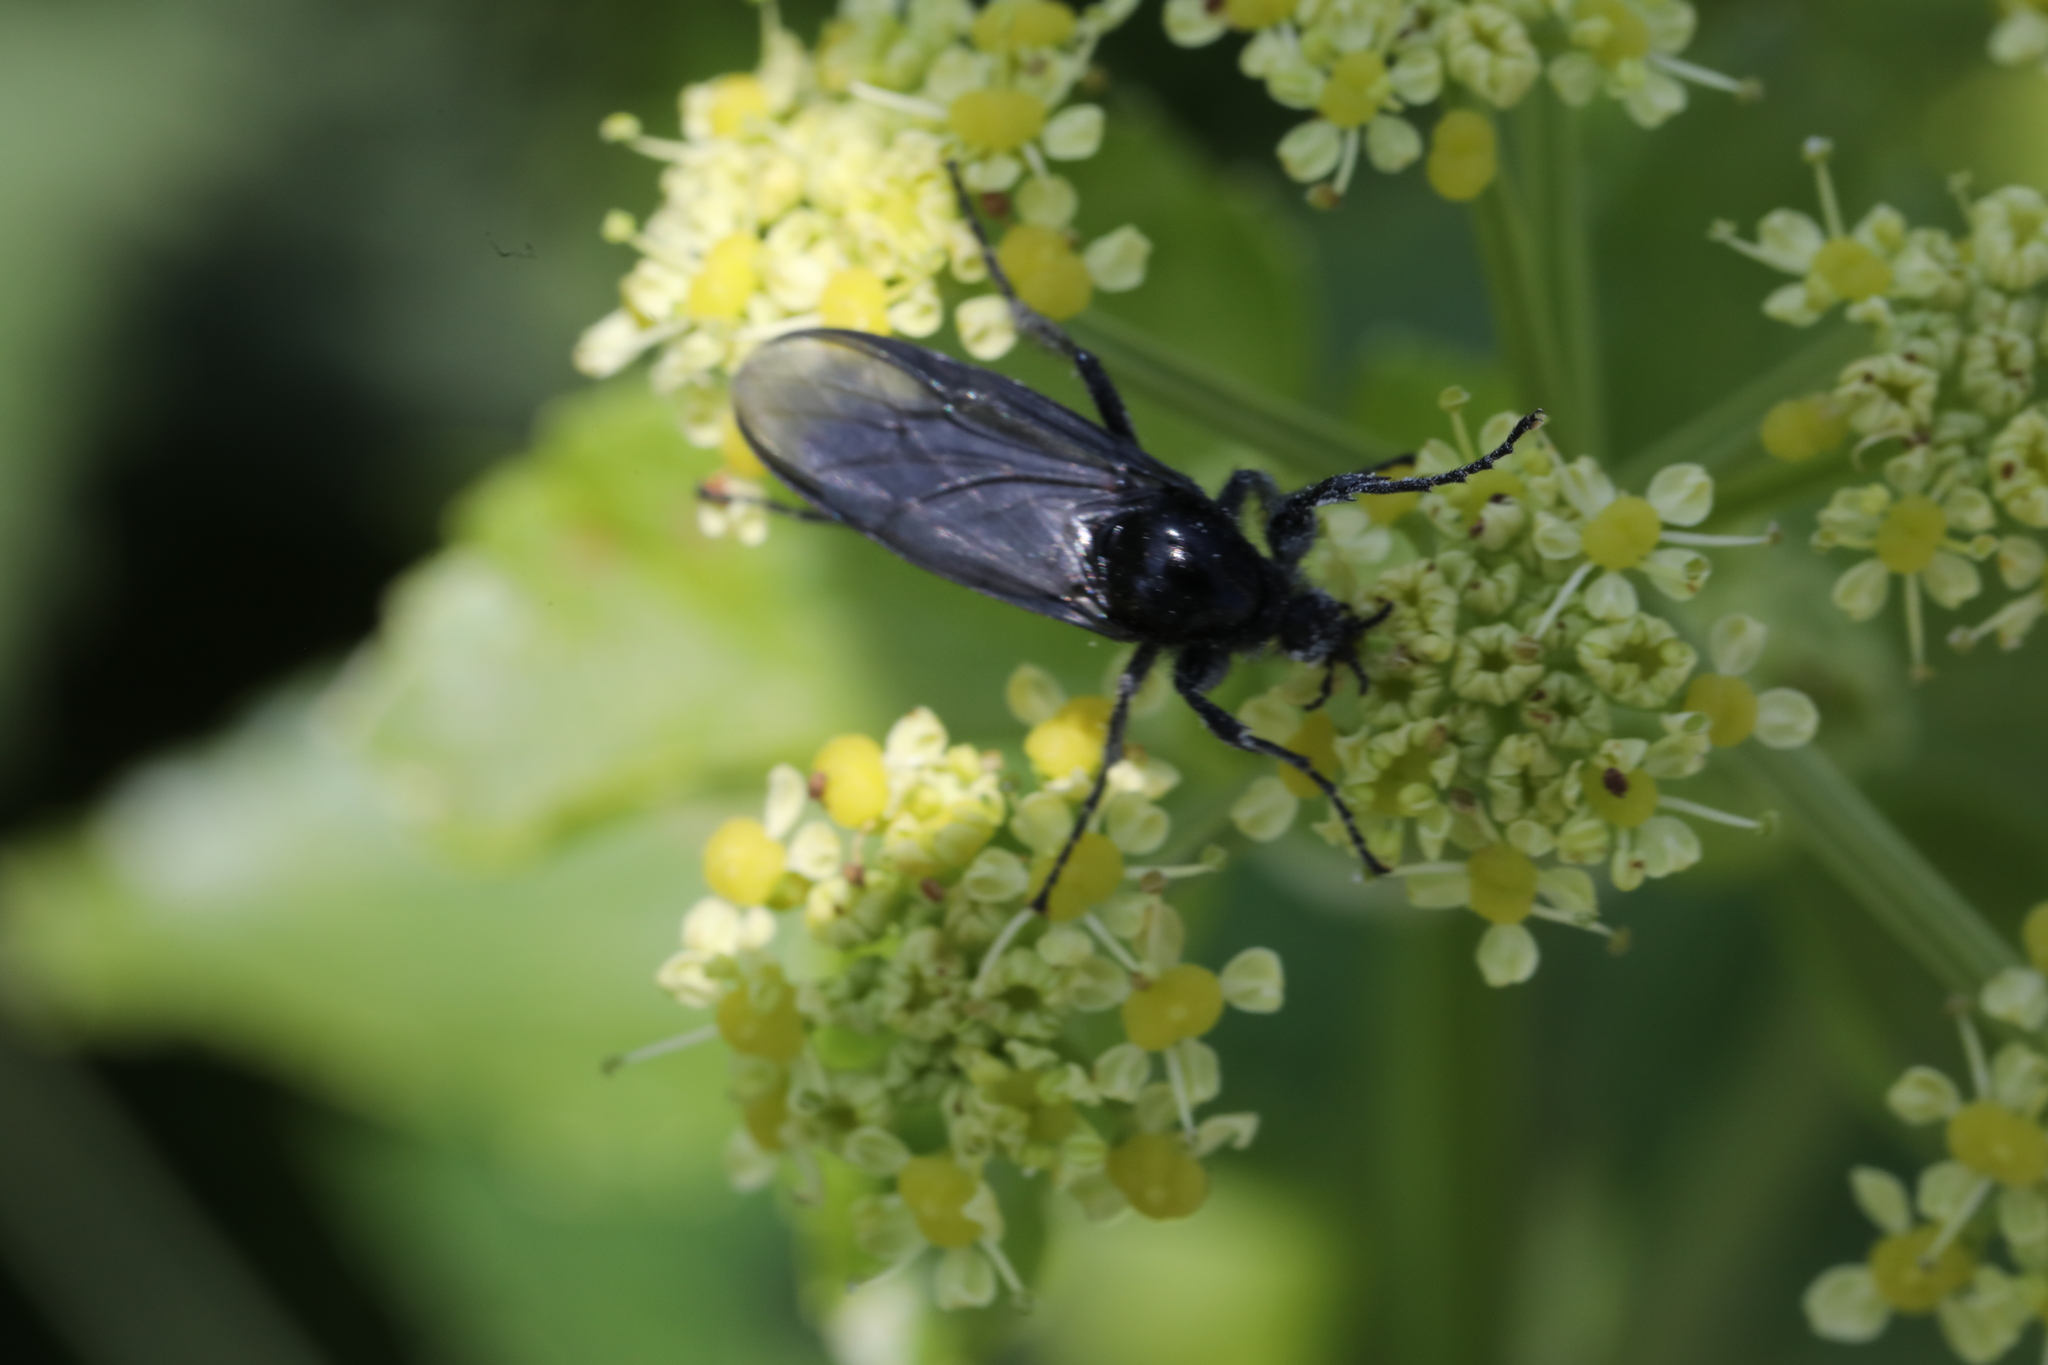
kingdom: Animalia
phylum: Arthropoda
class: Insecta
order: Diptera
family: Bibionidae
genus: Bibio
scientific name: Bibio marci
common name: St marks fly
